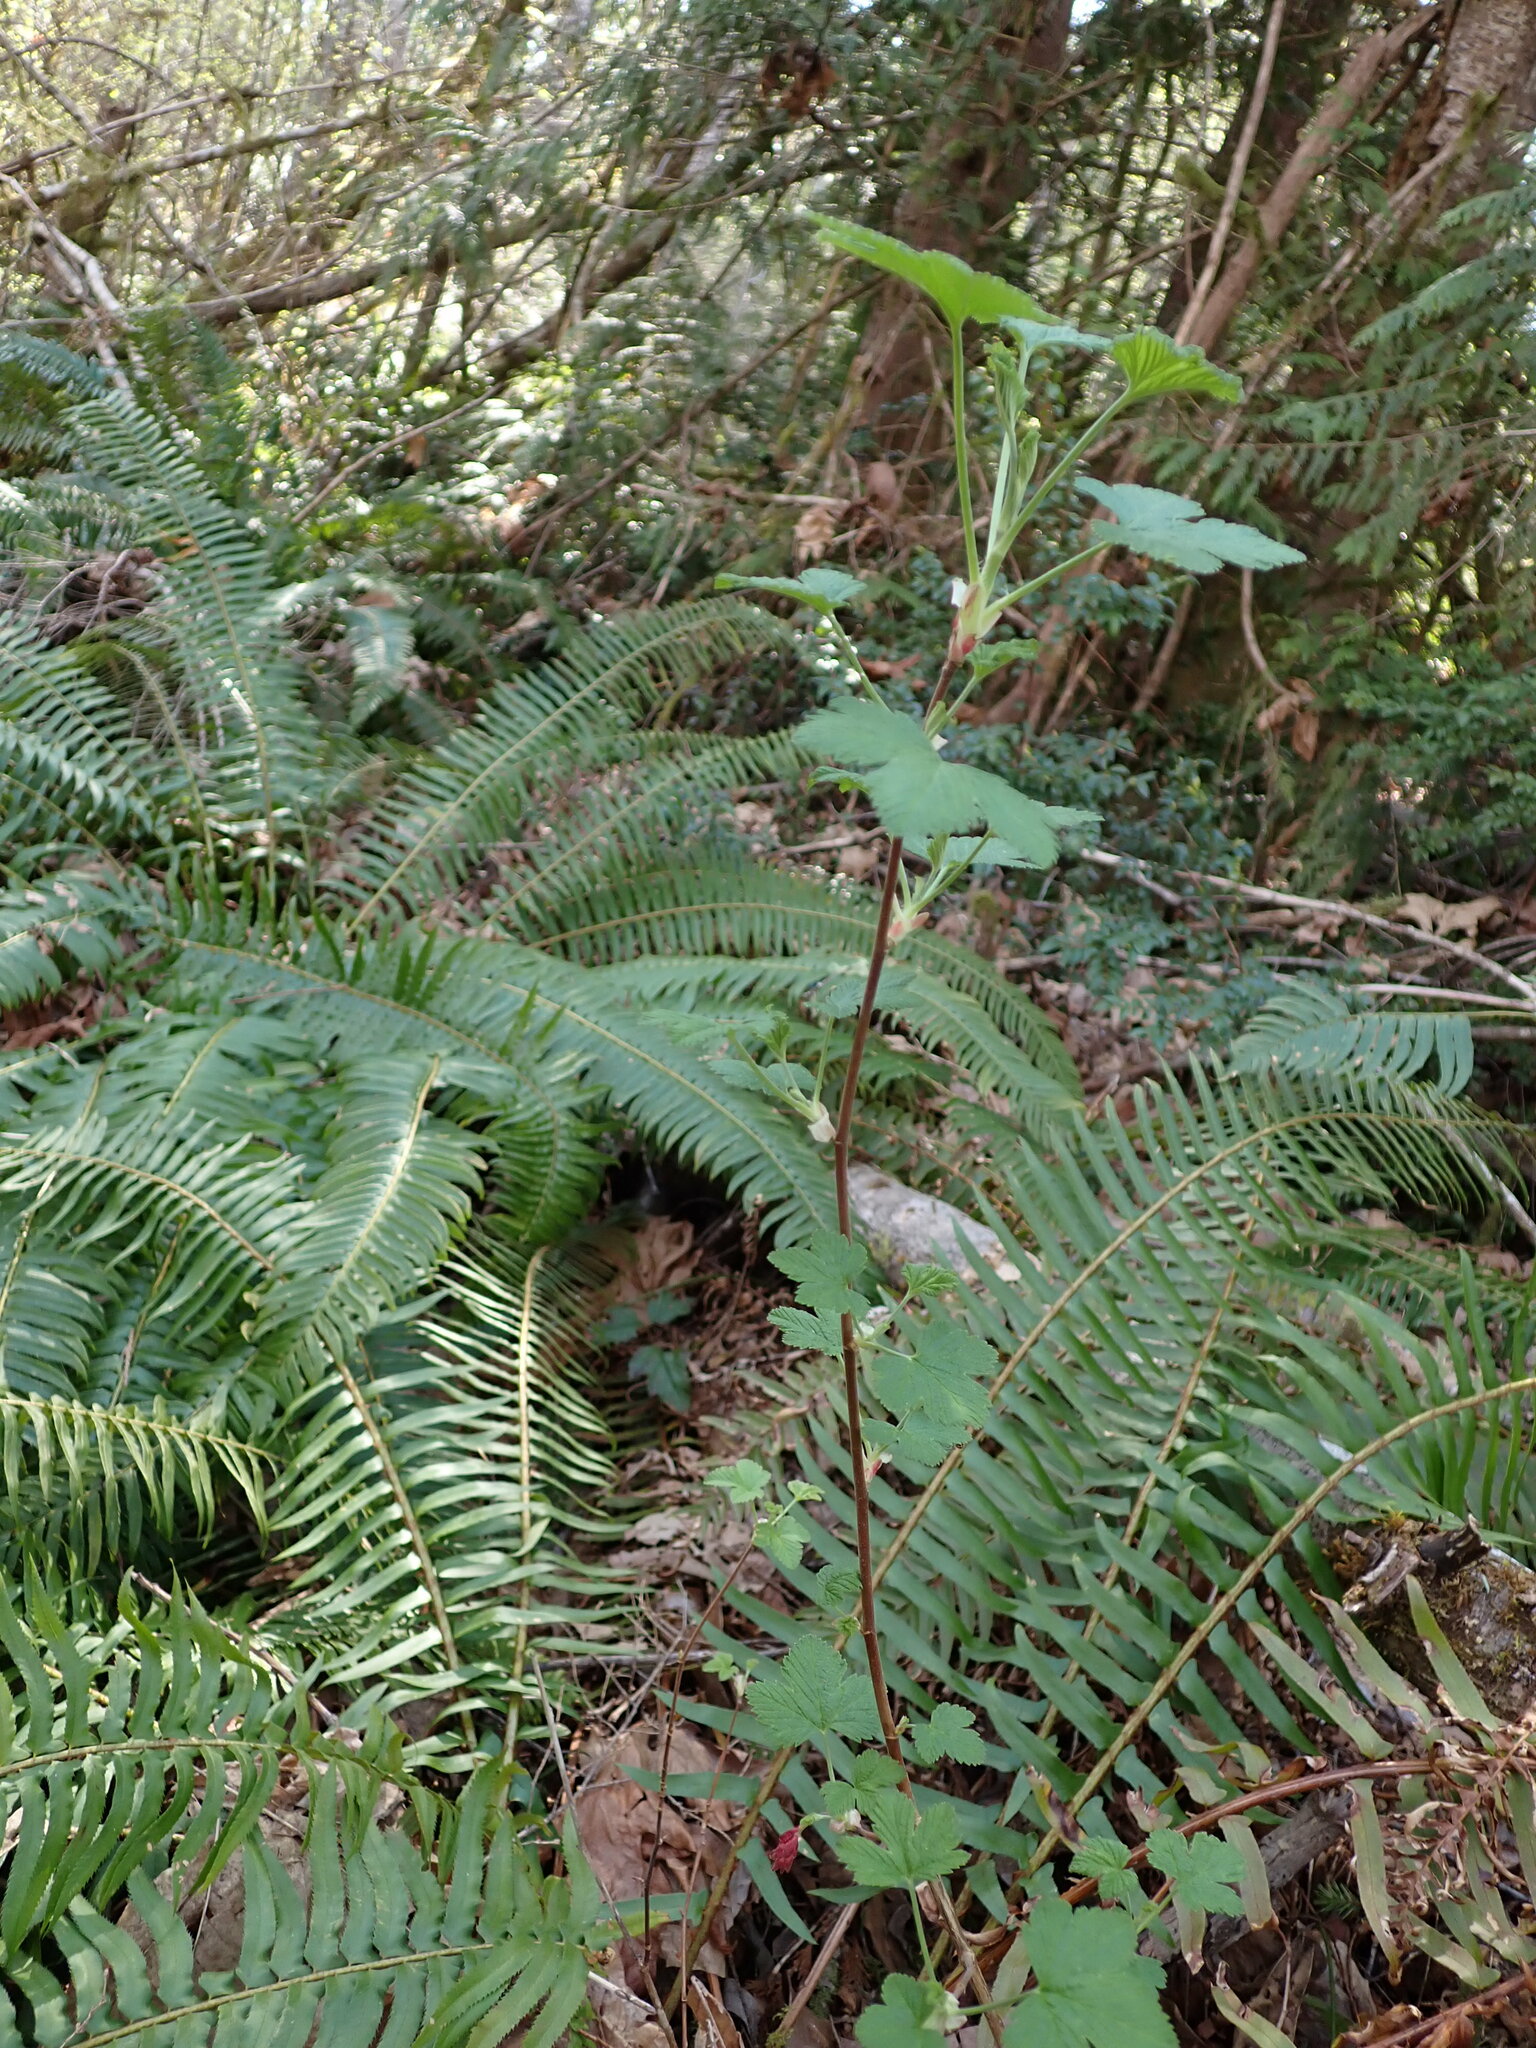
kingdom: Plantae
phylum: Tracheophyta
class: Magnoliopsida
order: Saxifragales
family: Grossulariaceae
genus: Ribes
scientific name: Ribes sanguineum
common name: Flowering currant
